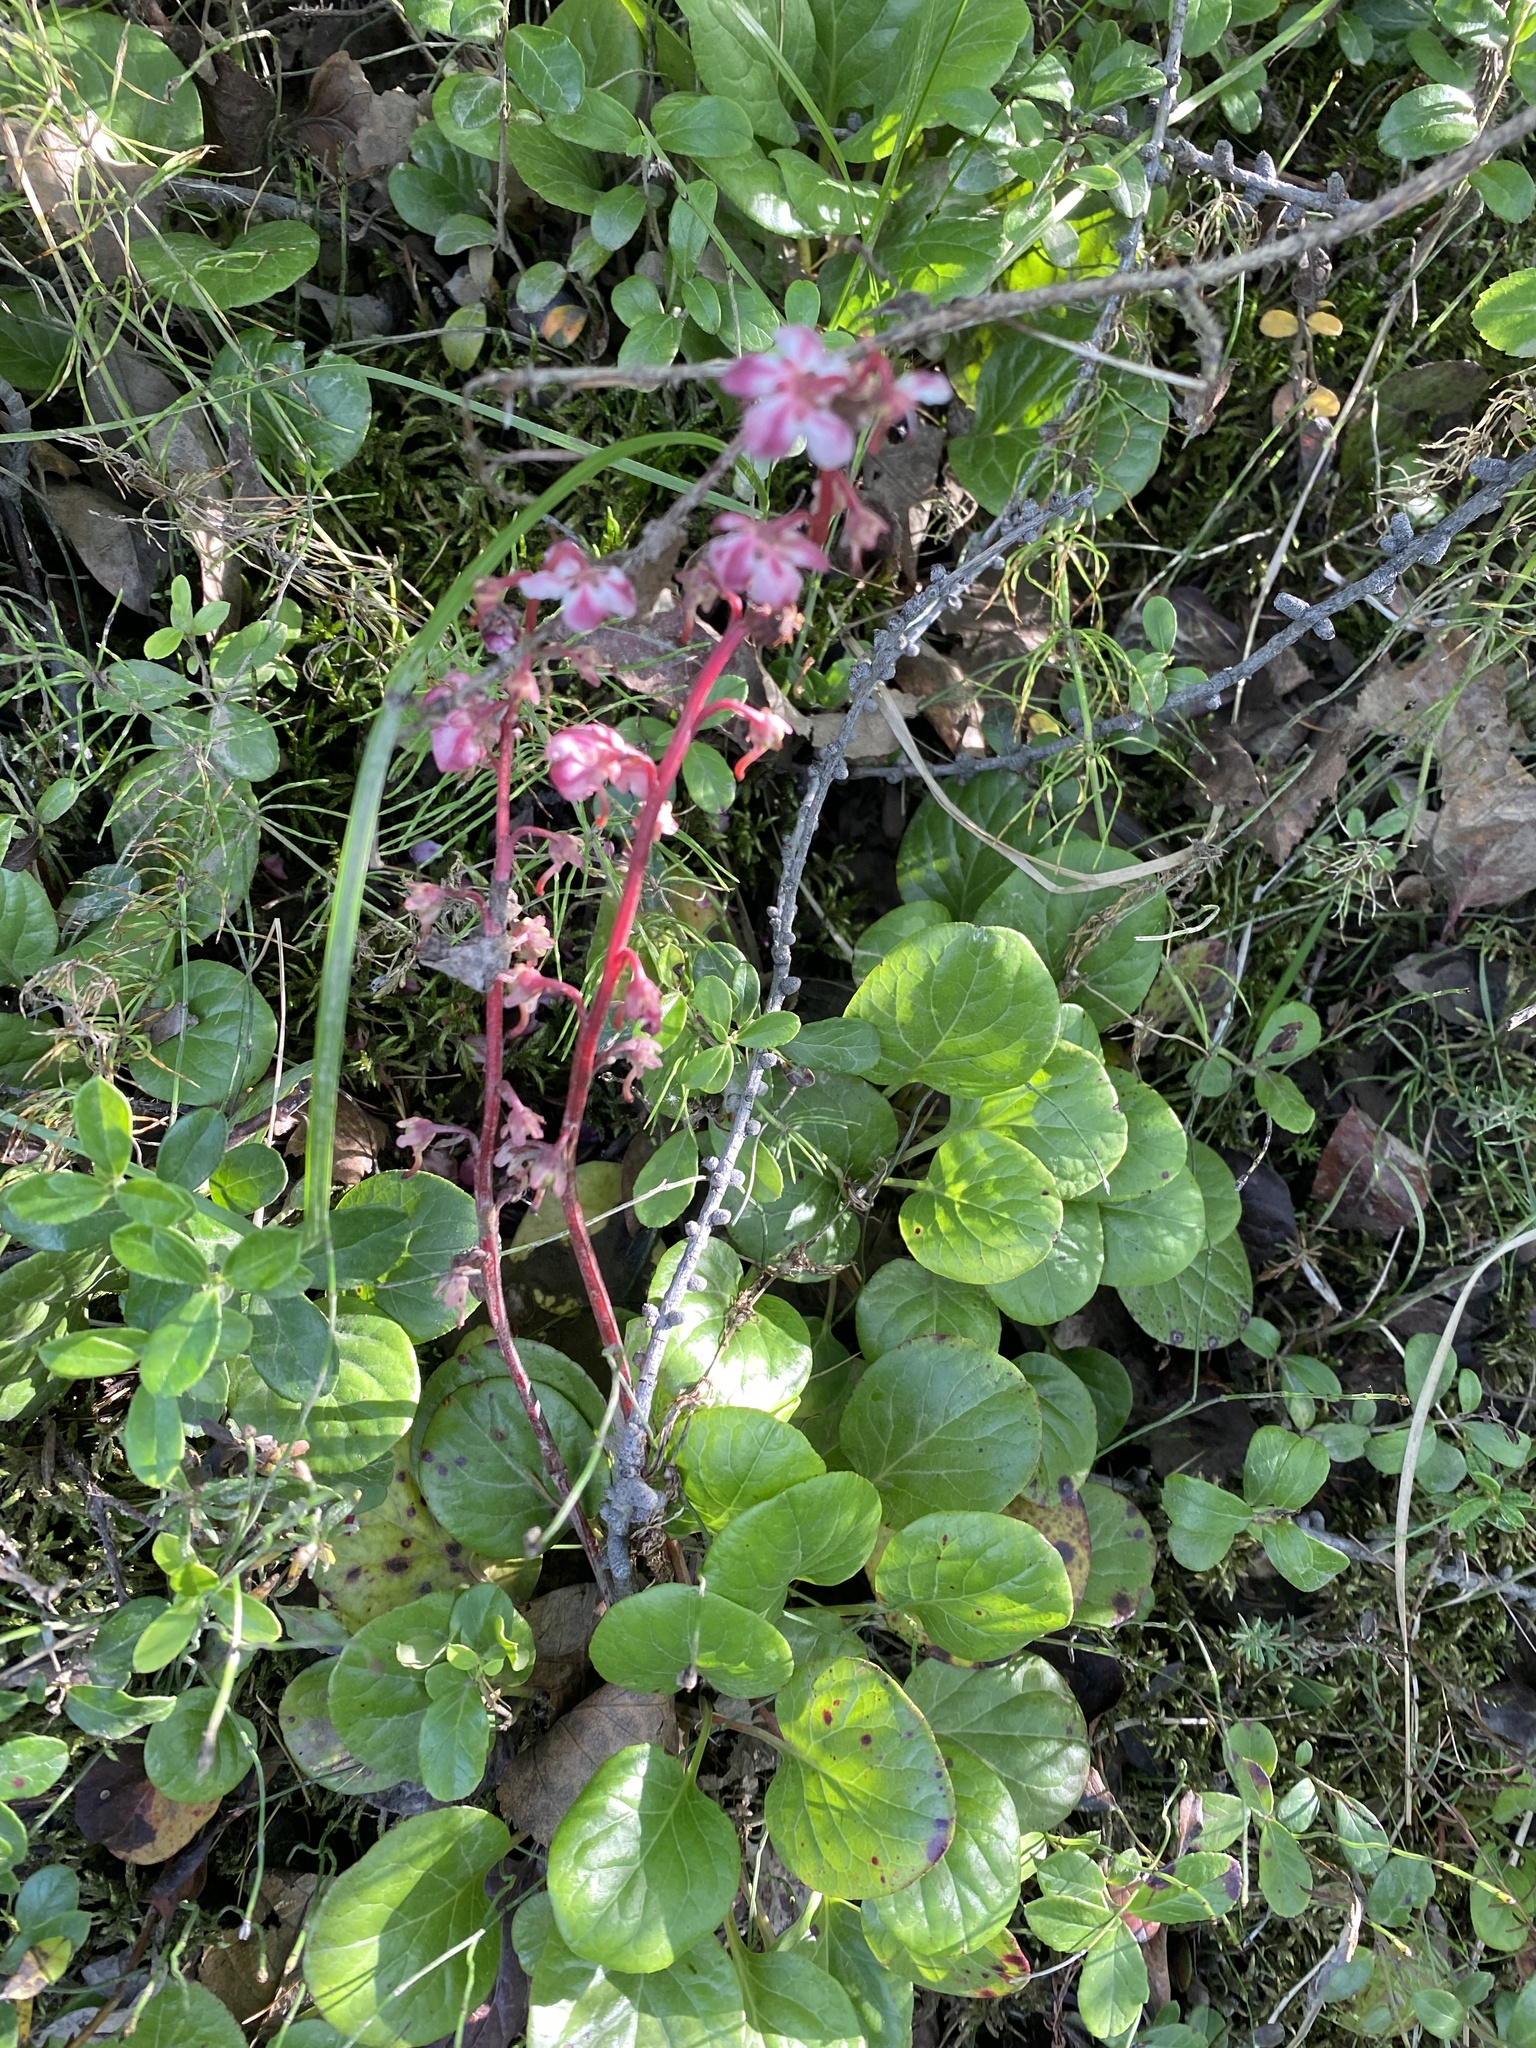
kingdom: Plantae
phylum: Tracheophyta
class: Magnoliopsida
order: Ericales
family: Ericaceae
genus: Pyrola
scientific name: Pyrola asarifolia
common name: Bog wintergreen
